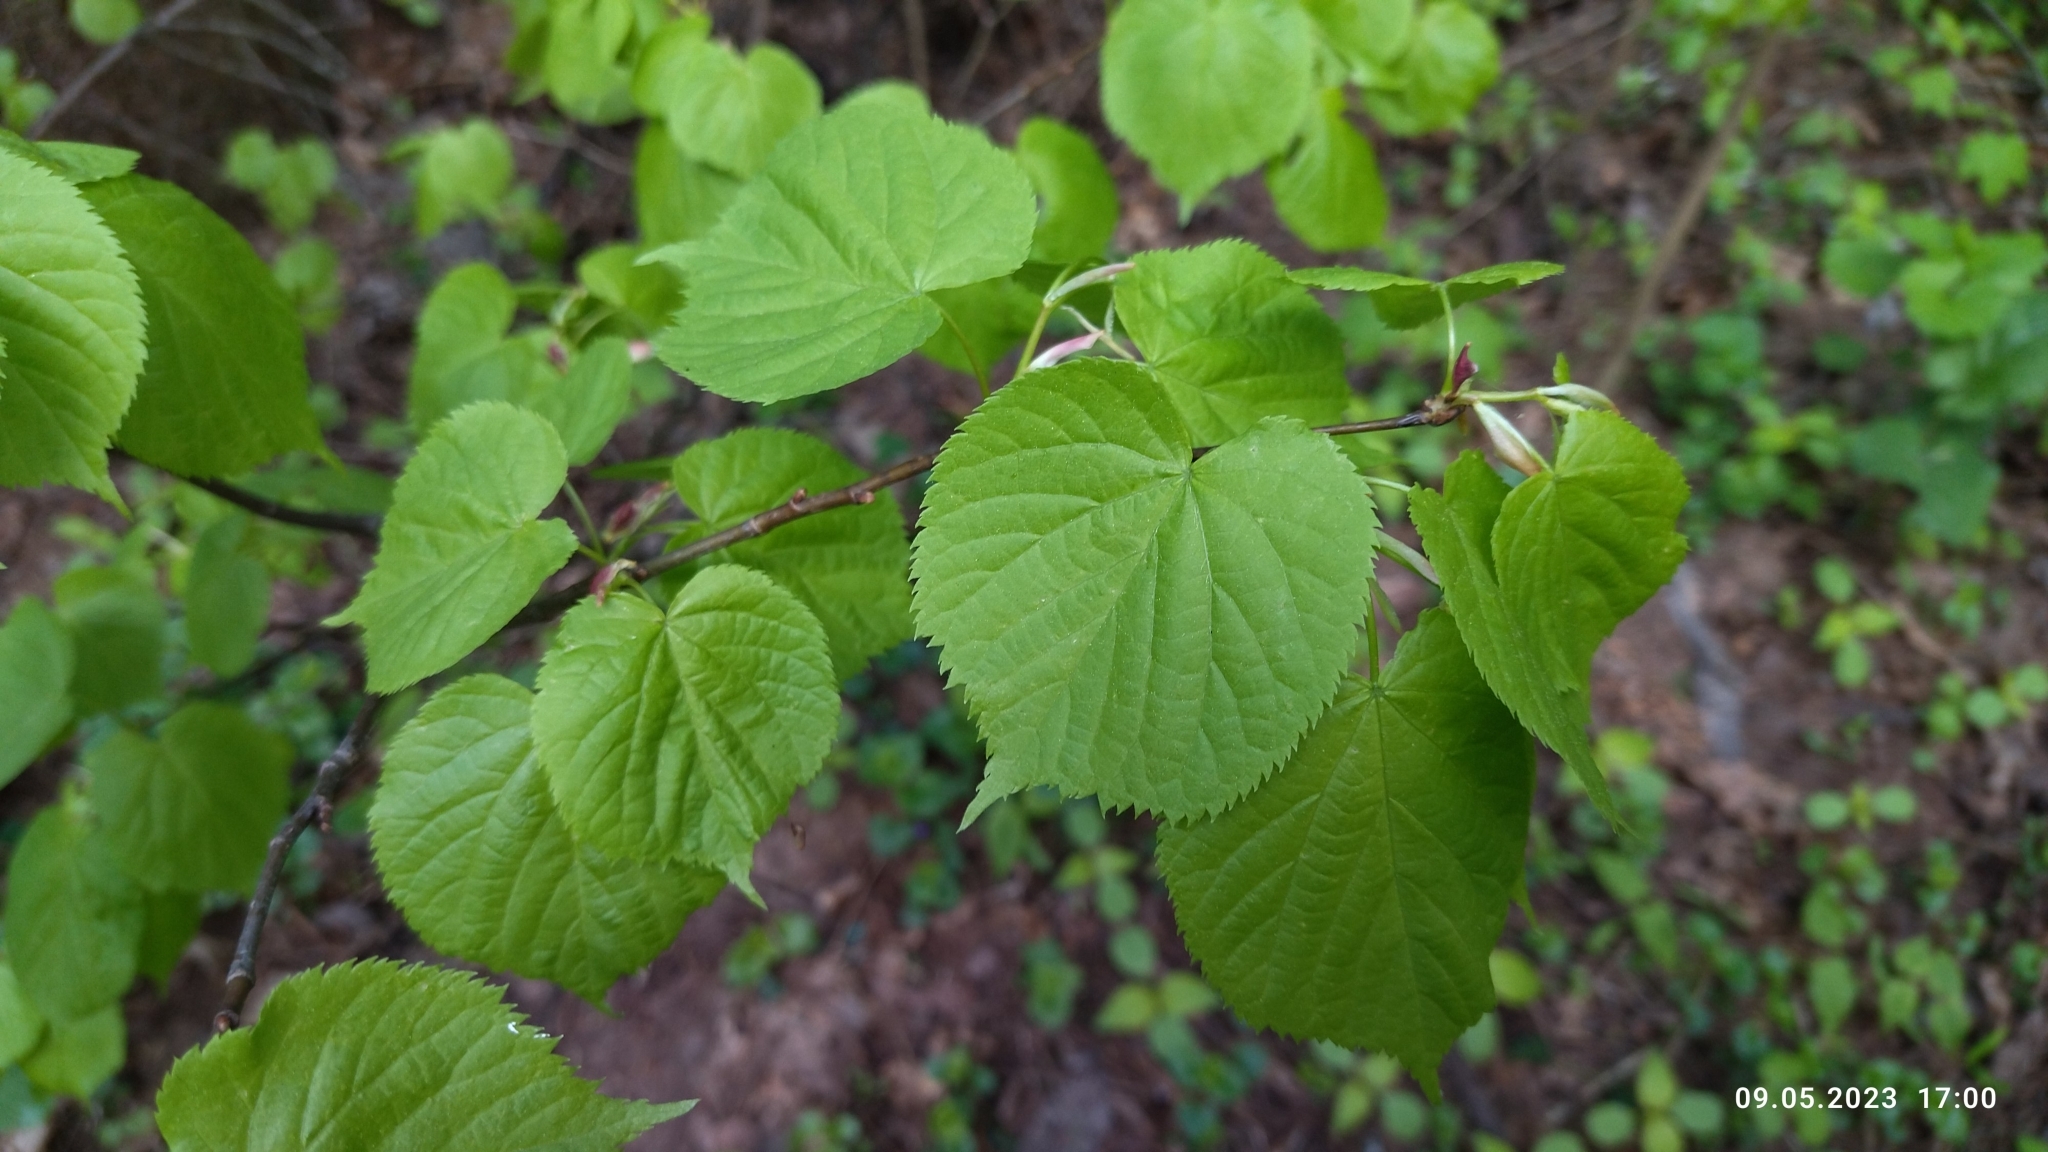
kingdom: Plantae
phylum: Tracheophyta
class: Magnoliopsida
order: Malvales
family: Malvaceae
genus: Tilia
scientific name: Tilia cordata
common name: Small-leaved lime
